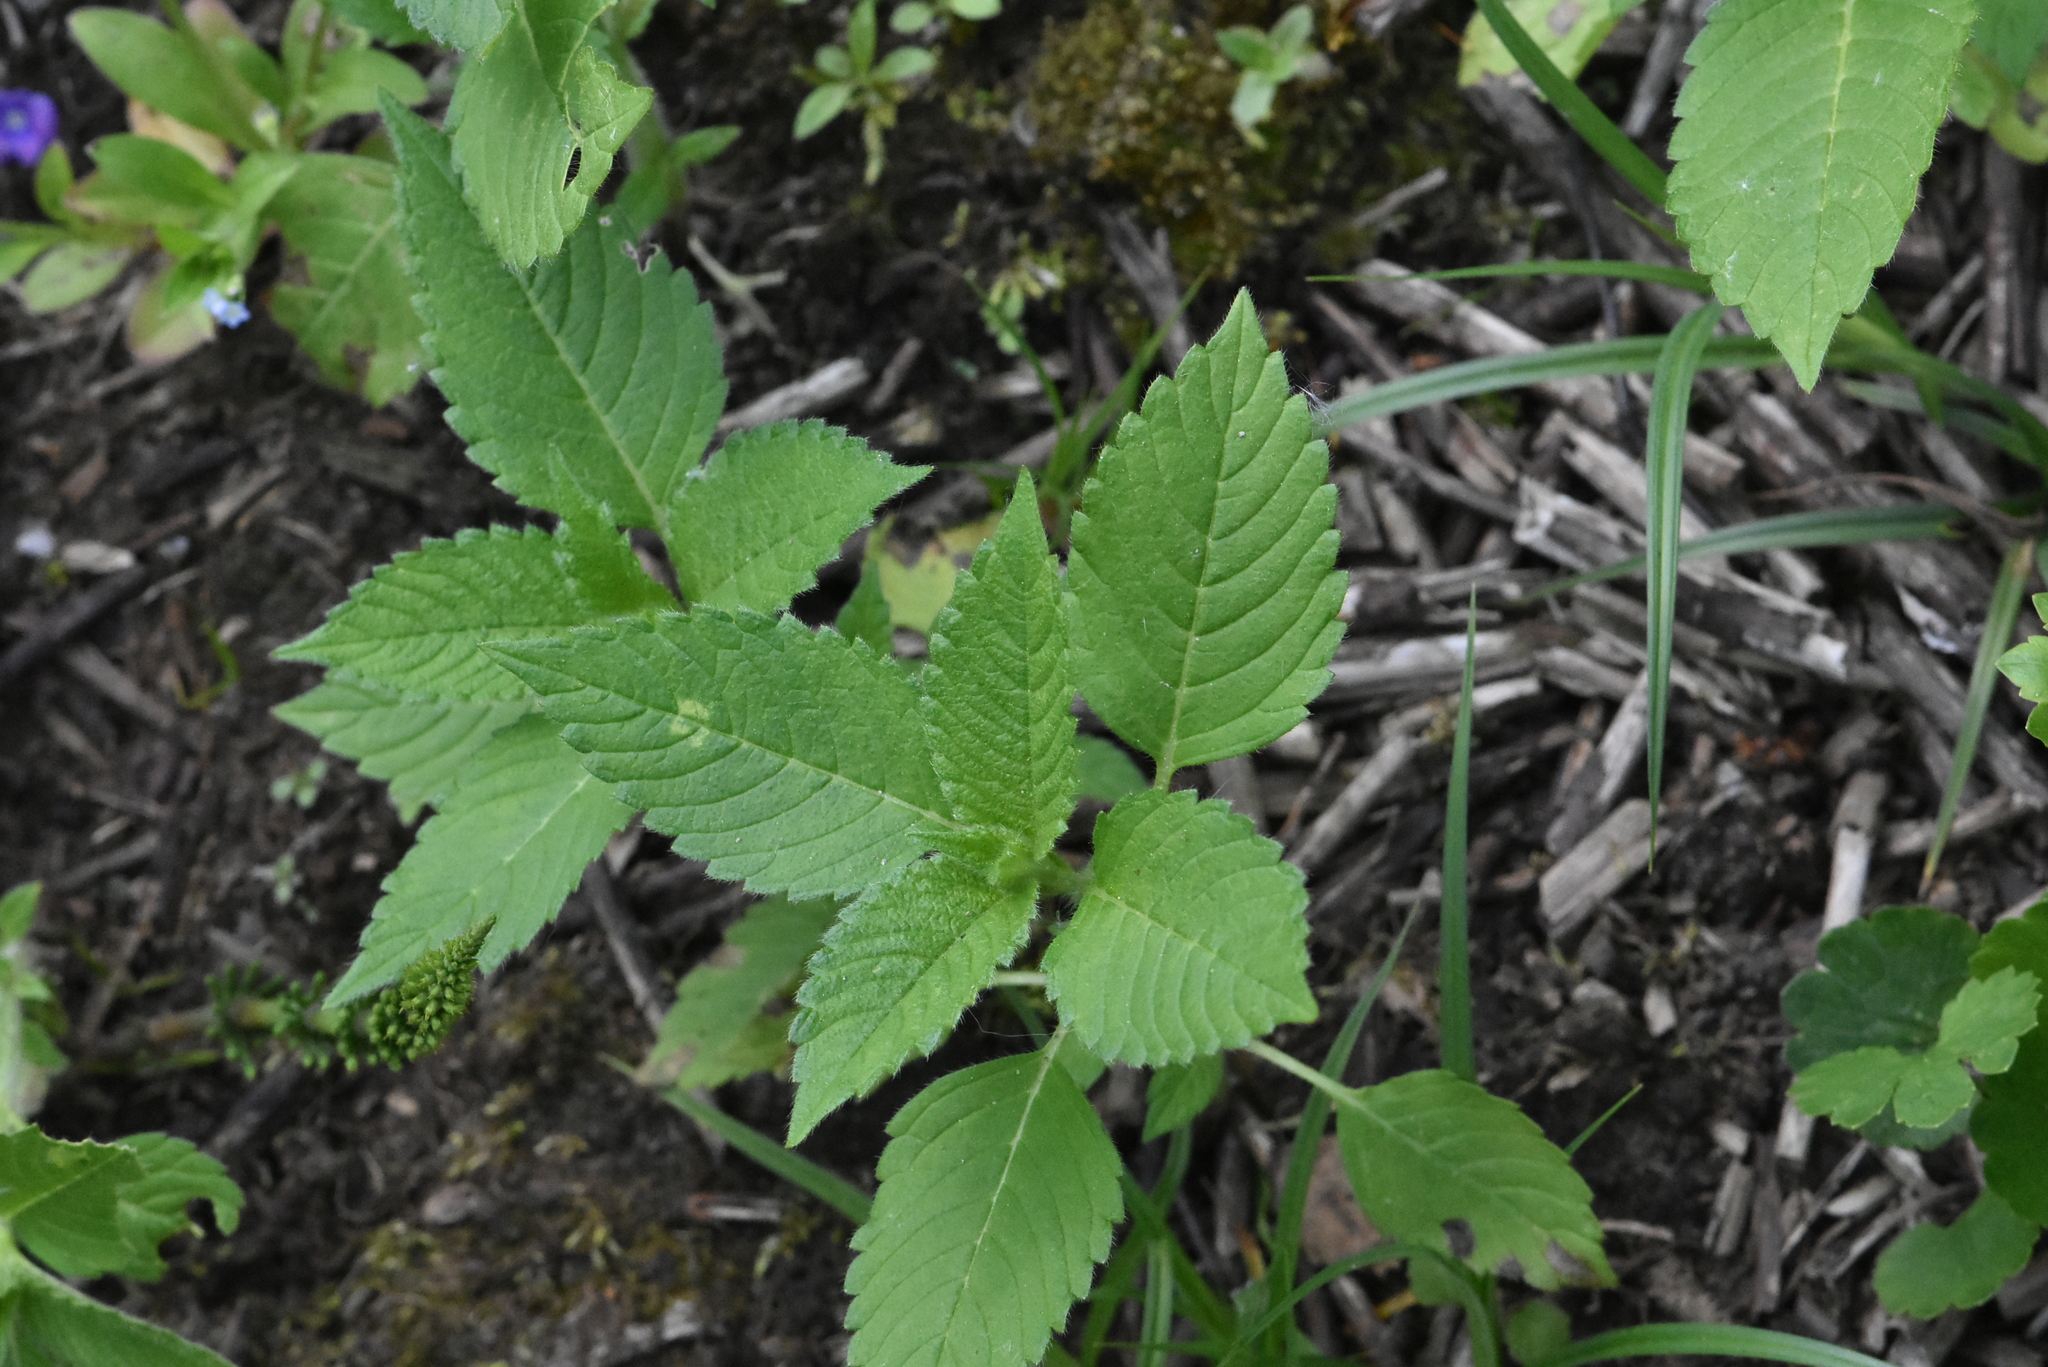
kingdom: Plantae
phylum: Tracheophyta
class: Magnoliopsida
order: Lamiales
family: Lamiaceae
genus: Galeopsis
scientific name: Galeopsis
